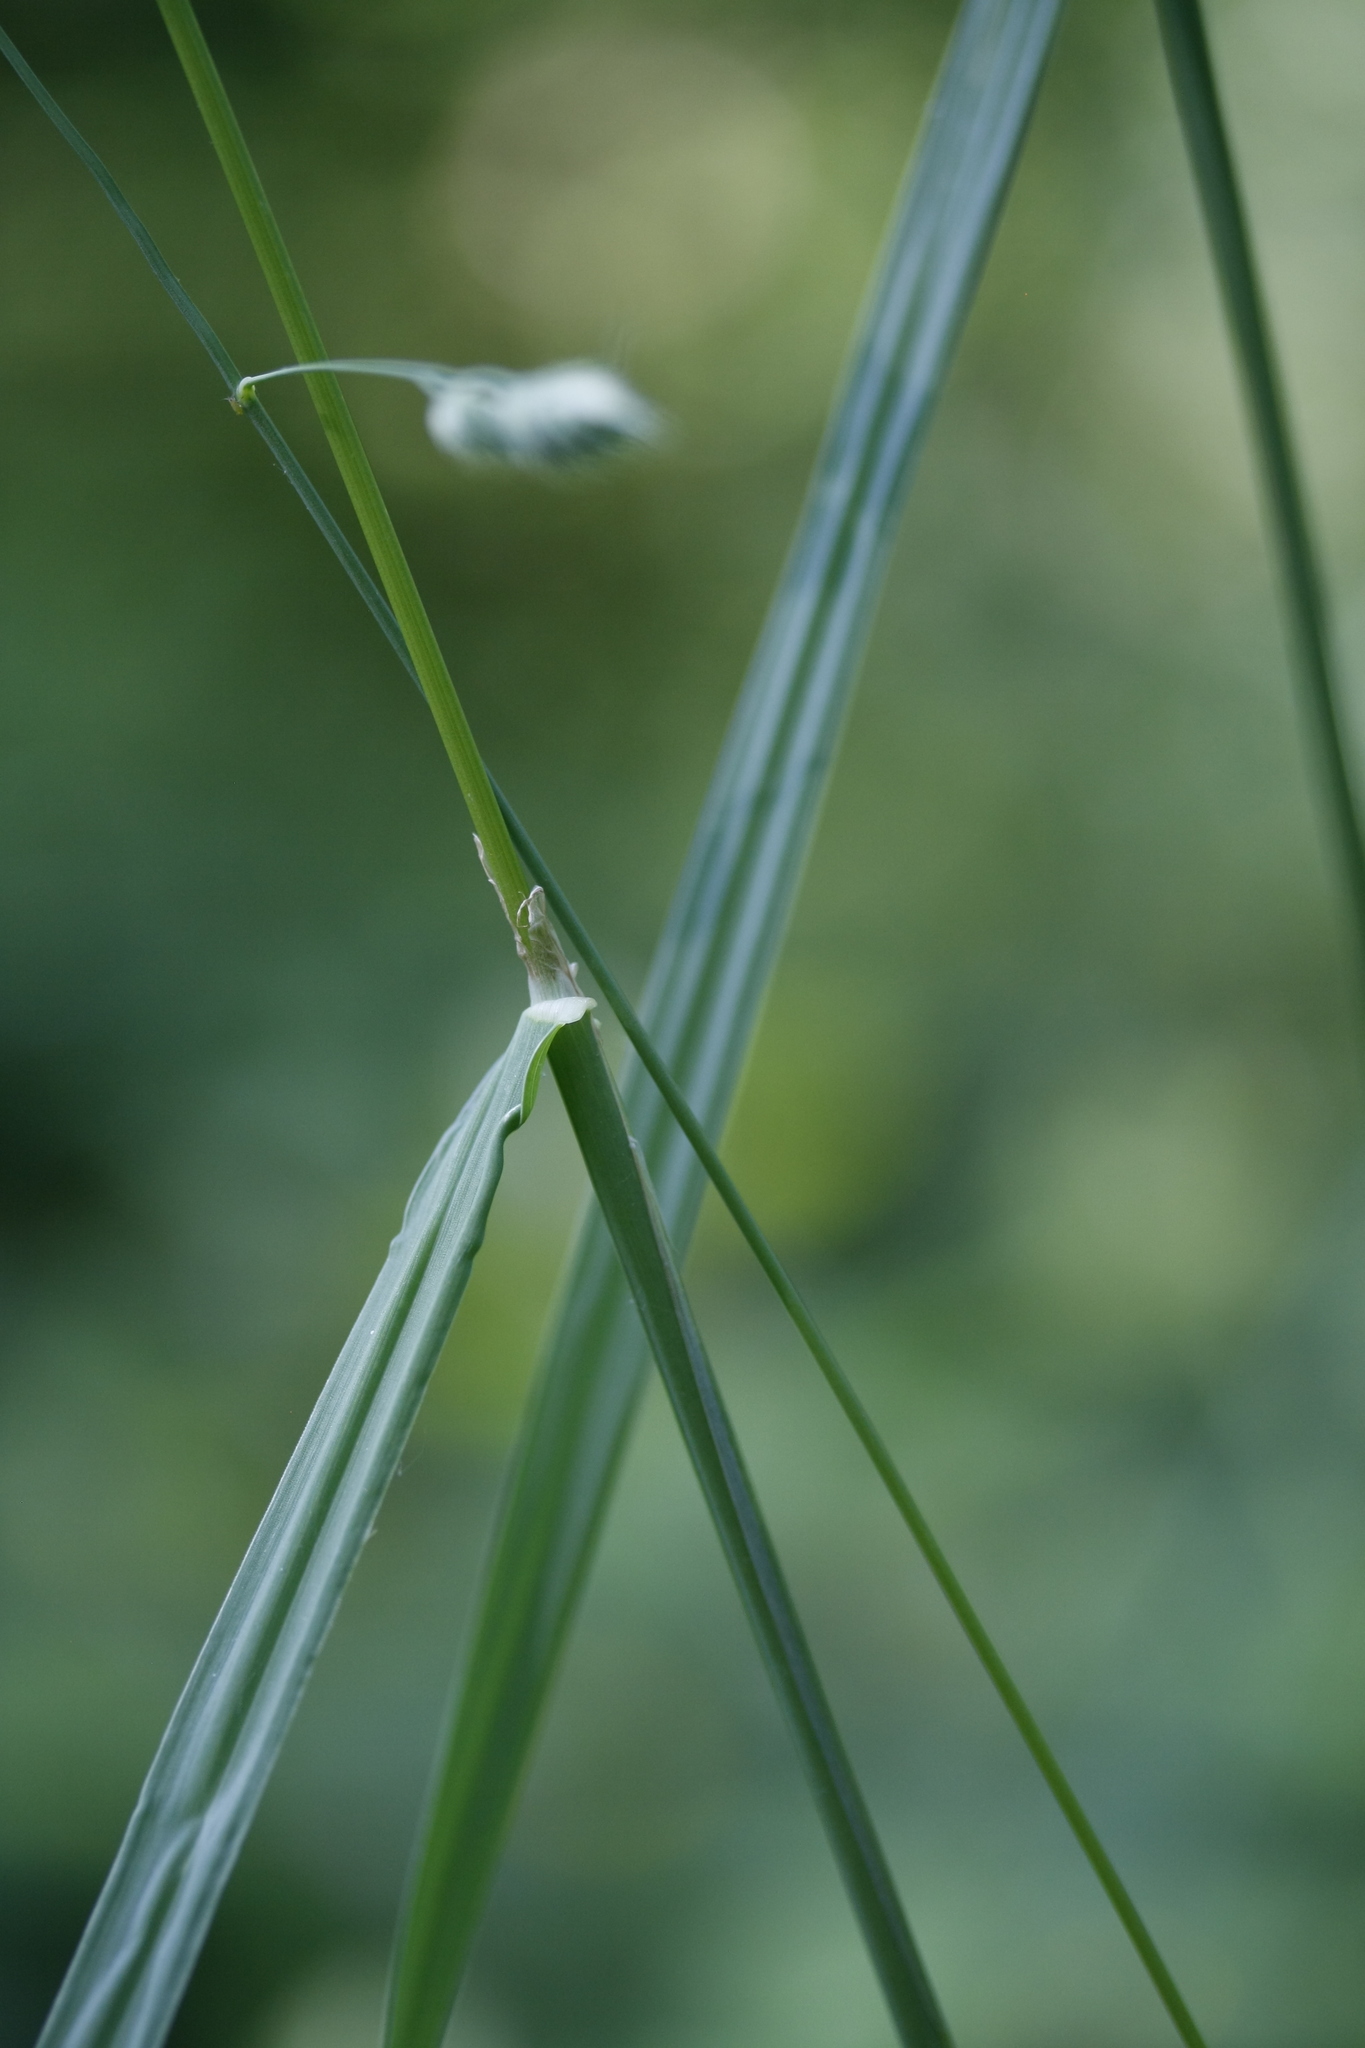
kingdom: Plantae
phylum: Tracheophyta
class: Liliopsida
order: Poales
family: Poaceae
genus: Dactylis
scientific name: Dactylis glomerata
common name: Orchardgrass
